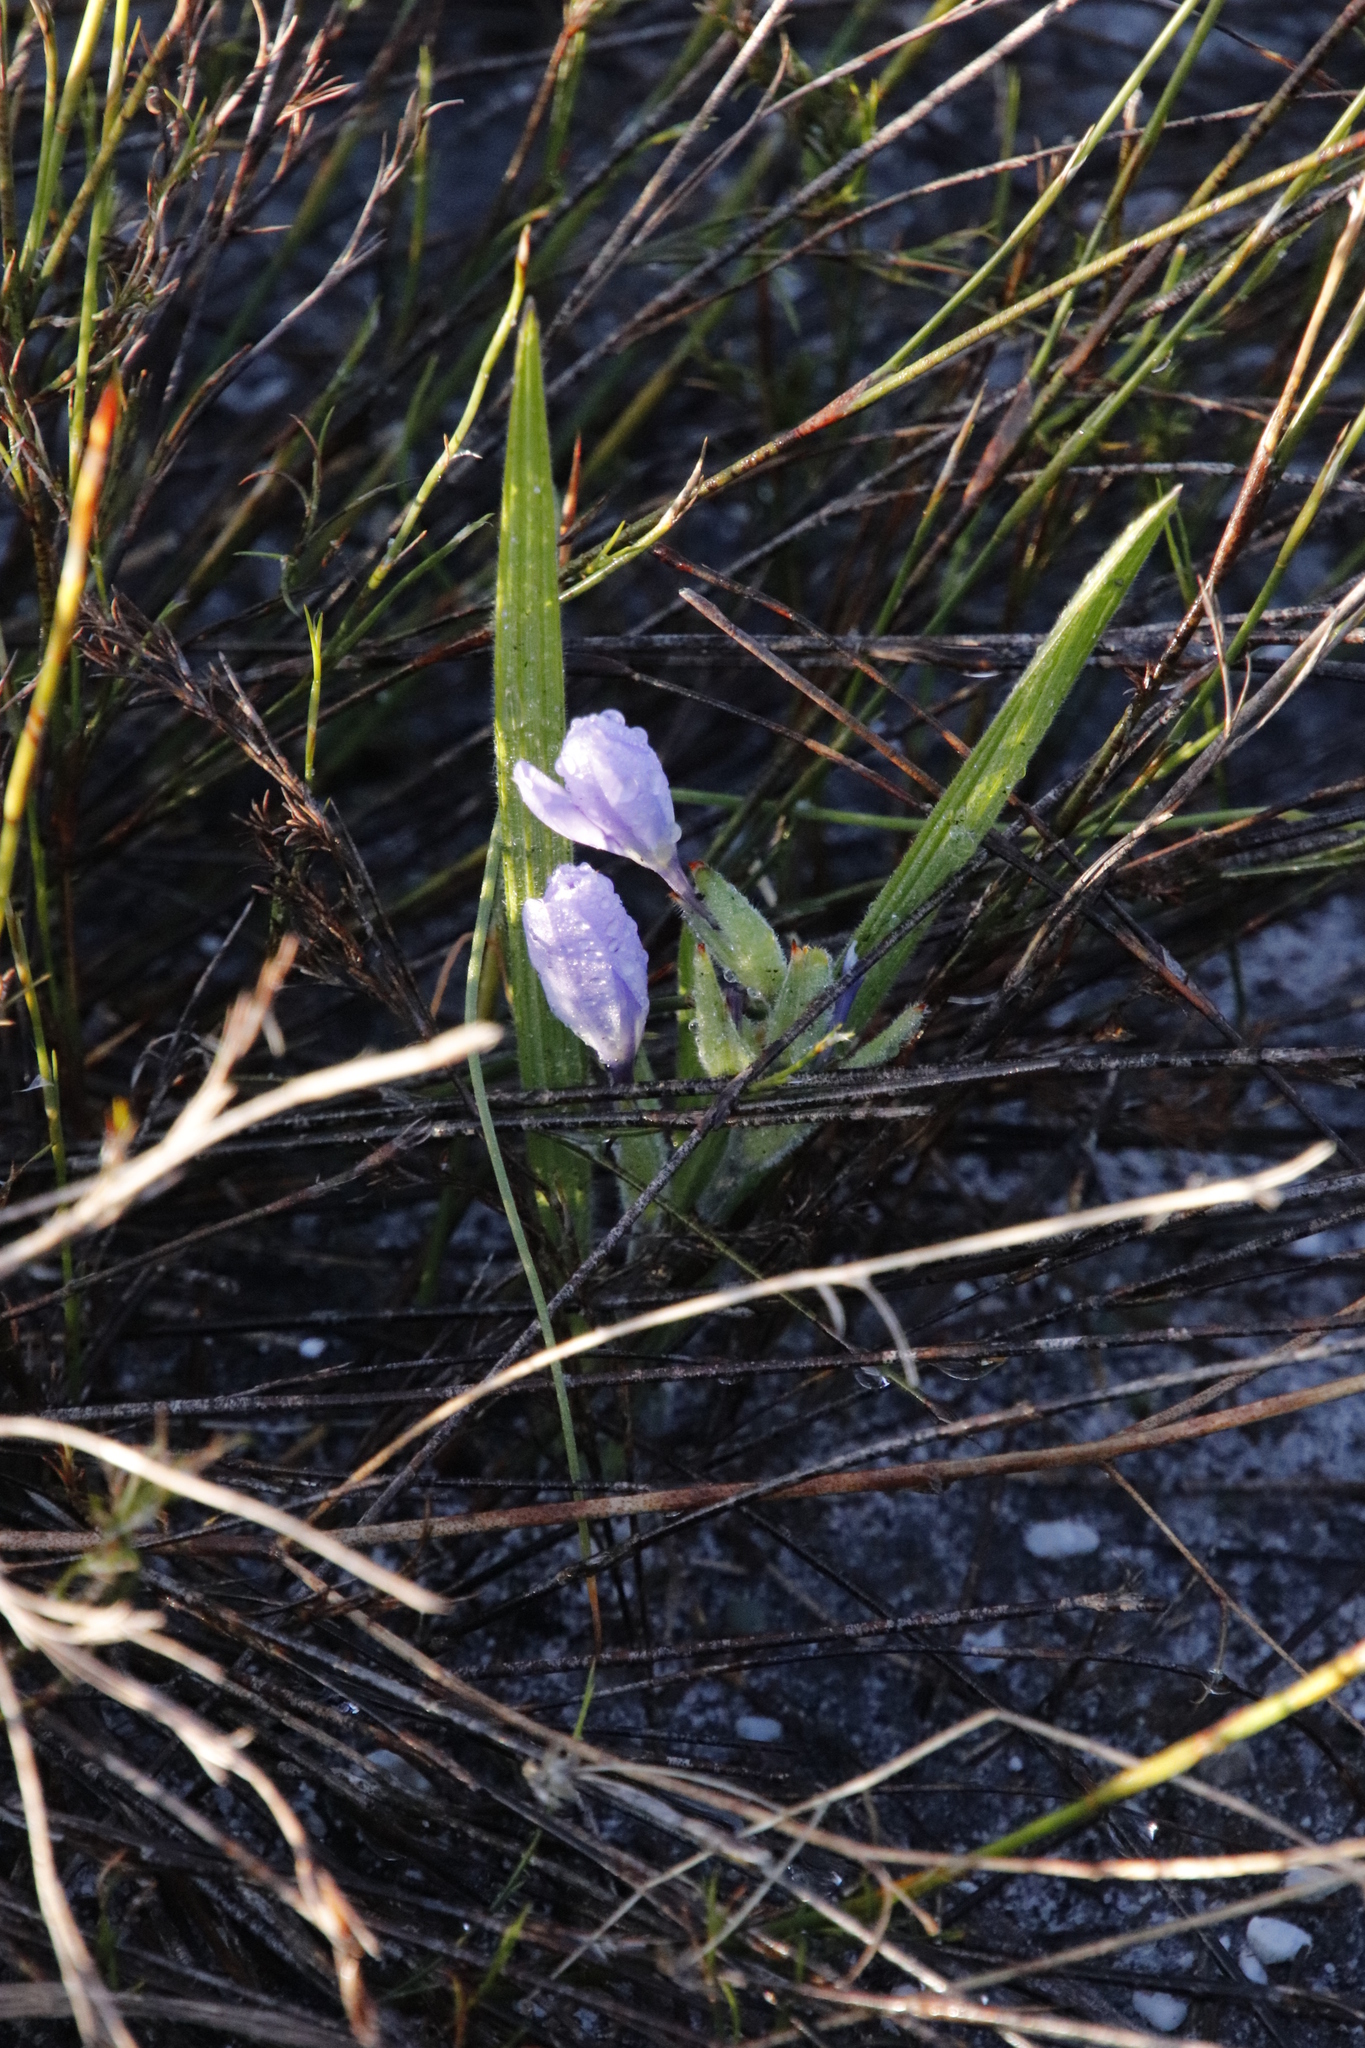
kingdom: Plantae
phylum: Tracheophyta
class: Liliopsida
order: Asparagales
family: Iridaceae
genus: Babiana
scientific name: Babiana villosula
